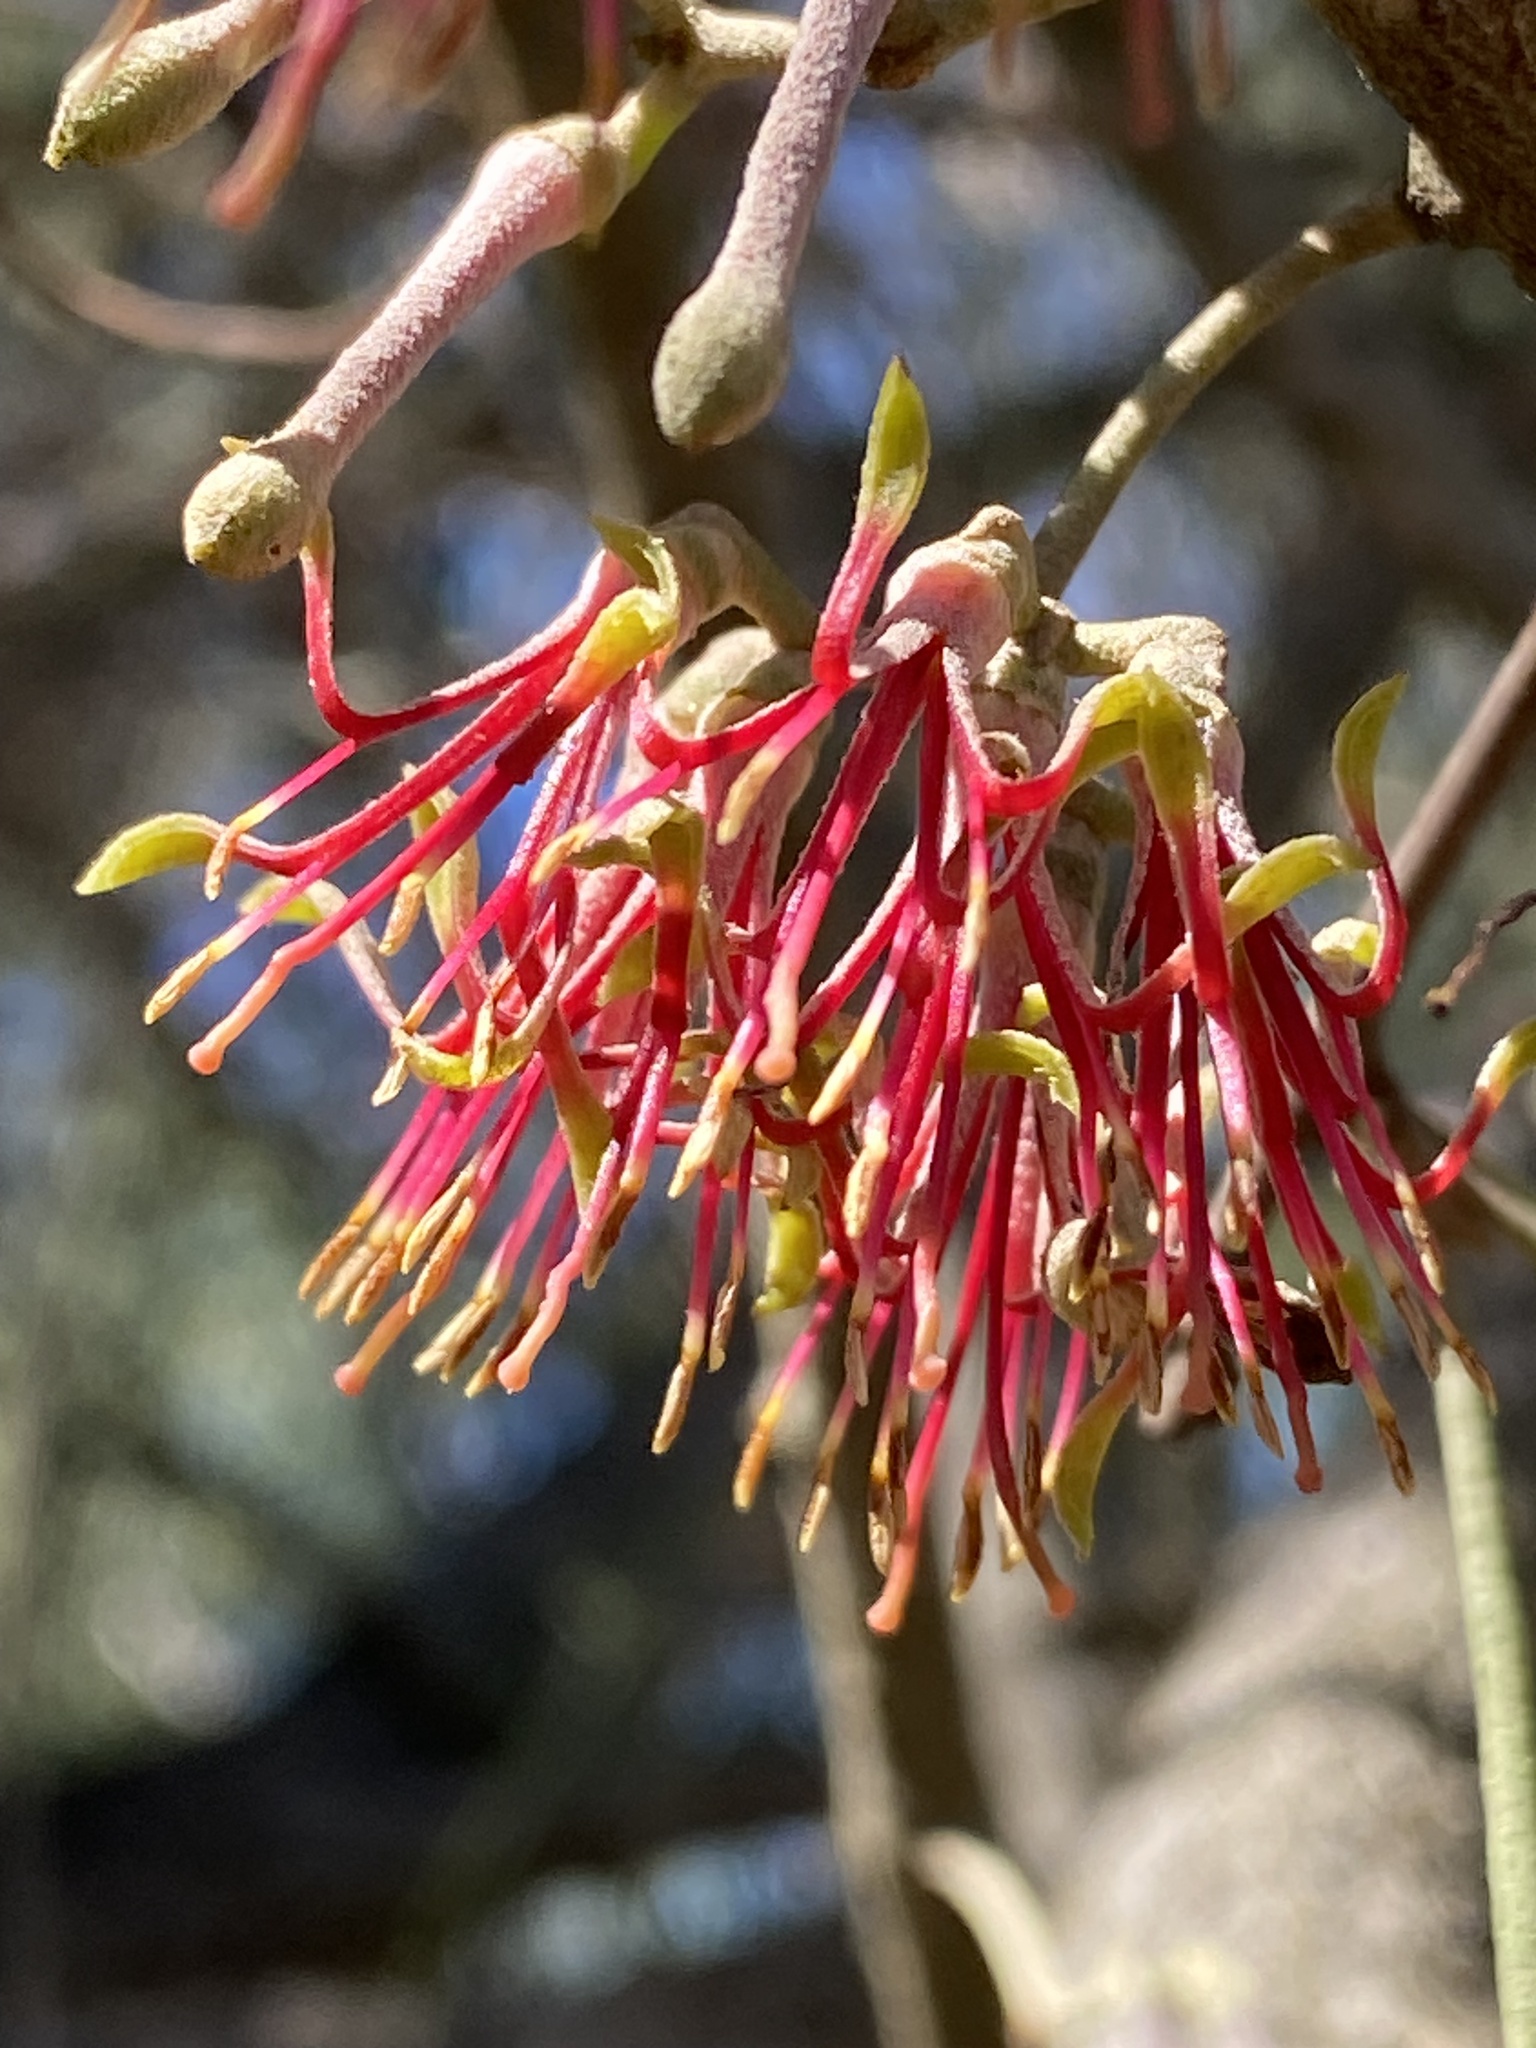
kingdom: Plantae
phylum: Tracheophyta
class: Magnoliopsida
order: Santalales
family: Loranthaceae
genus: Amyema
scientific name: Amyema cambagei
